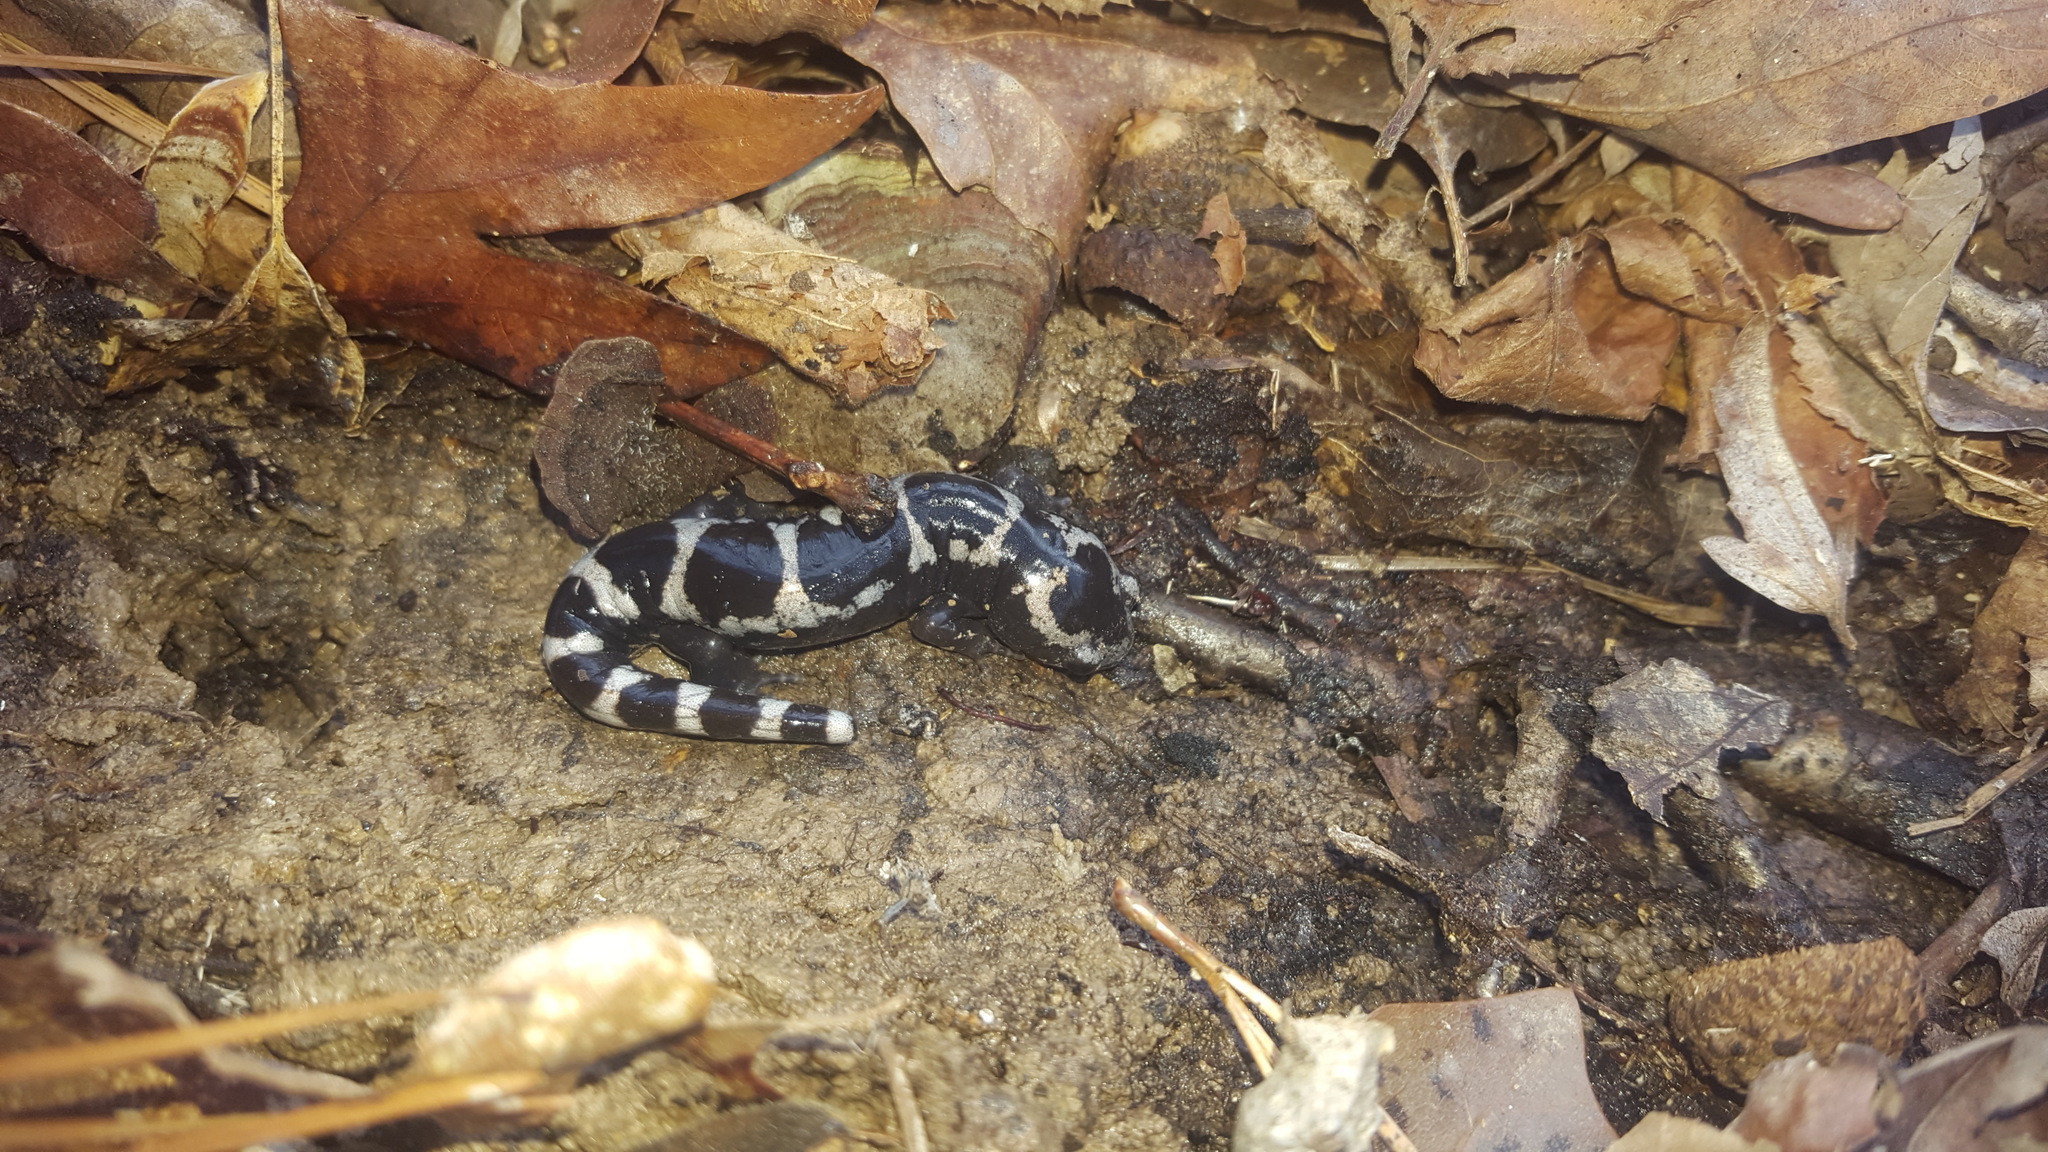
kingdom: Animalia
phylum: Chordata
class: Amphibia
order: Caudata
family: Ambystomatidae
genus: Ambystoma
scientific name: Ambystoma opacum
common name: Marbled salamander
